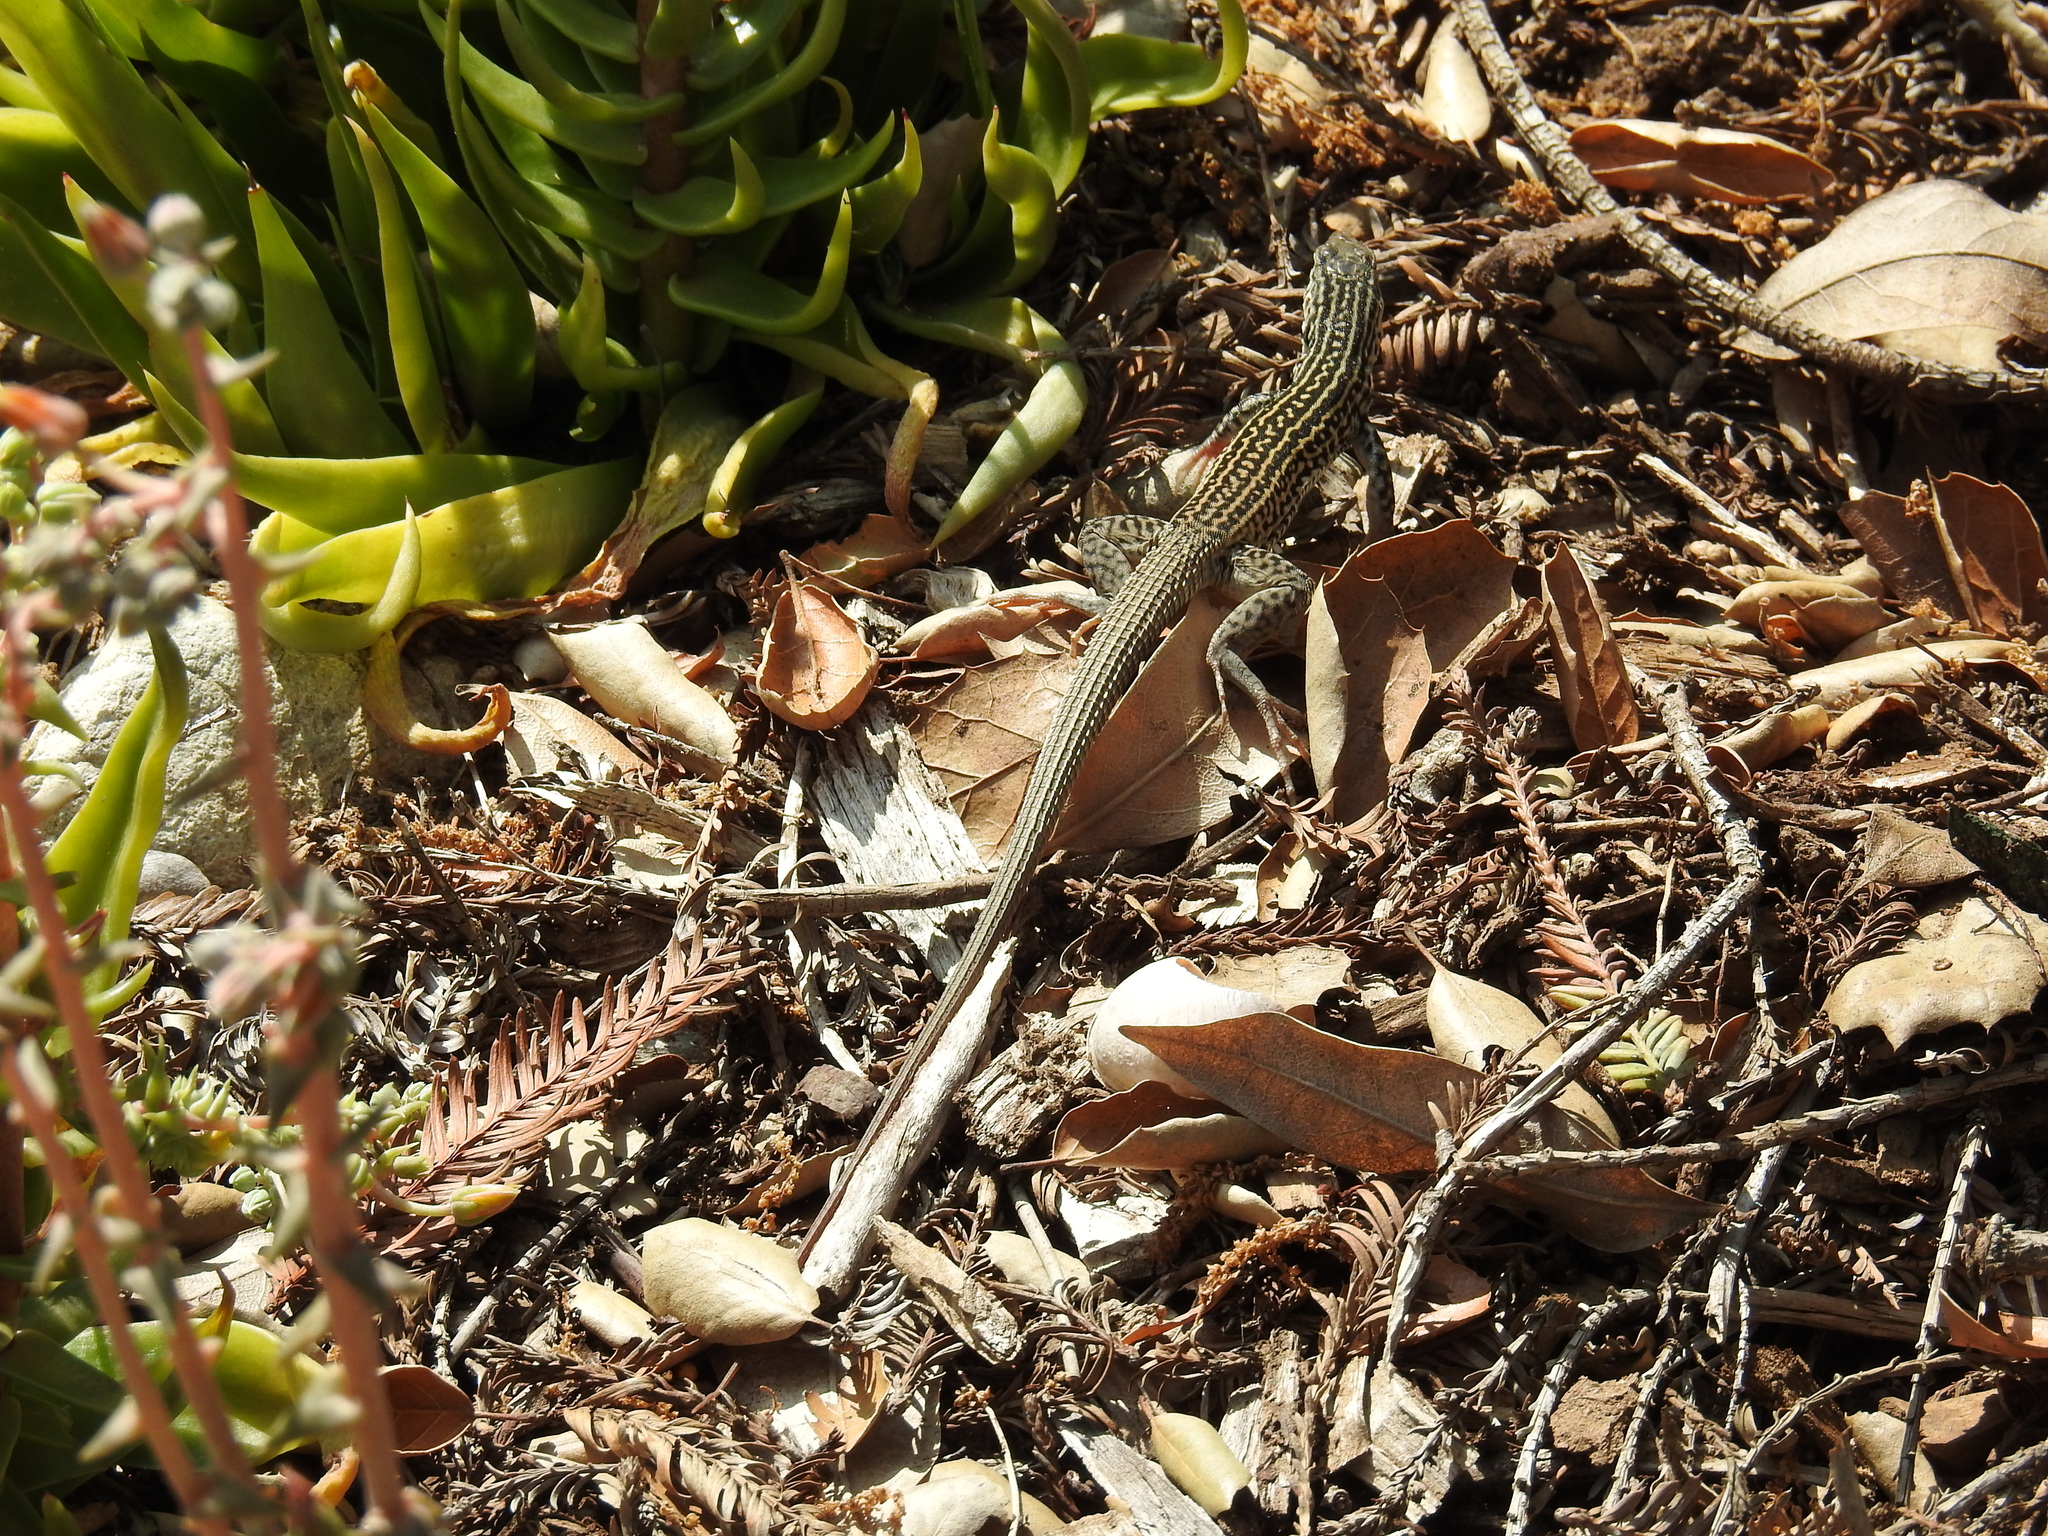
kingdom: Animalia
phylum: Chordata
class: Squamata
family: Teiidae
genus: Aspidoscelis
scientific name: Aspidoscelis tigris
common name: Tiger whiptail
